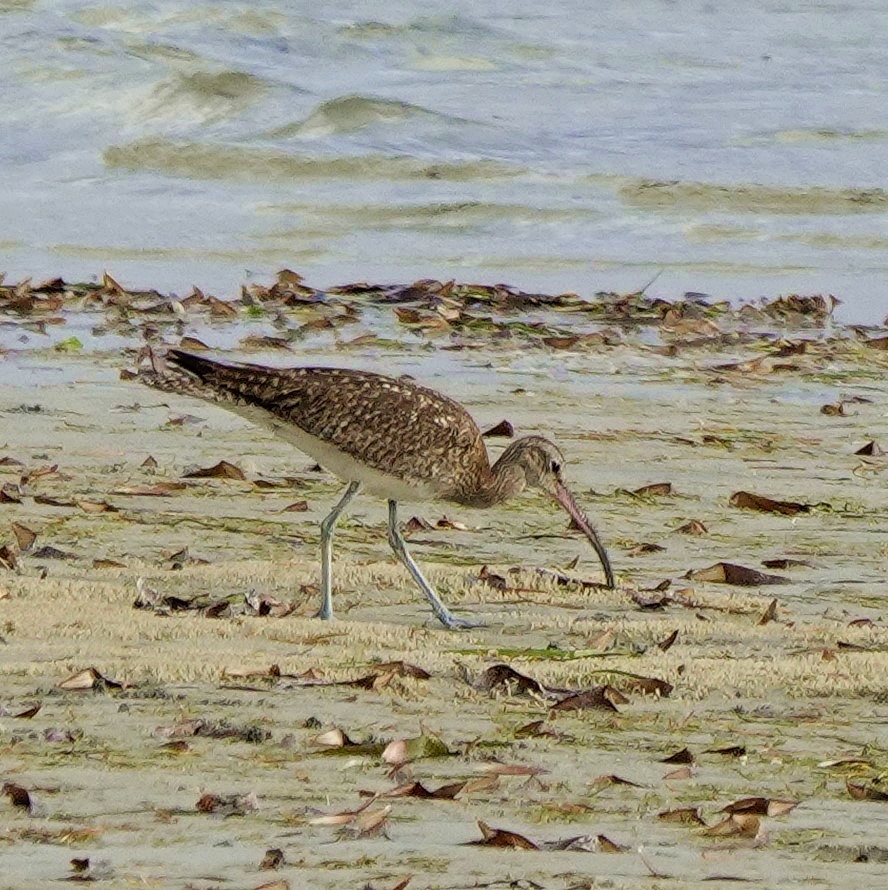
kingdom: Animalia
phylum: Chordata
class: Aves
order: Charadriiformes
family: Scolopacidae
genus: Numenius
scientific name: Numenius phaeopus
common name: Whimbrel
